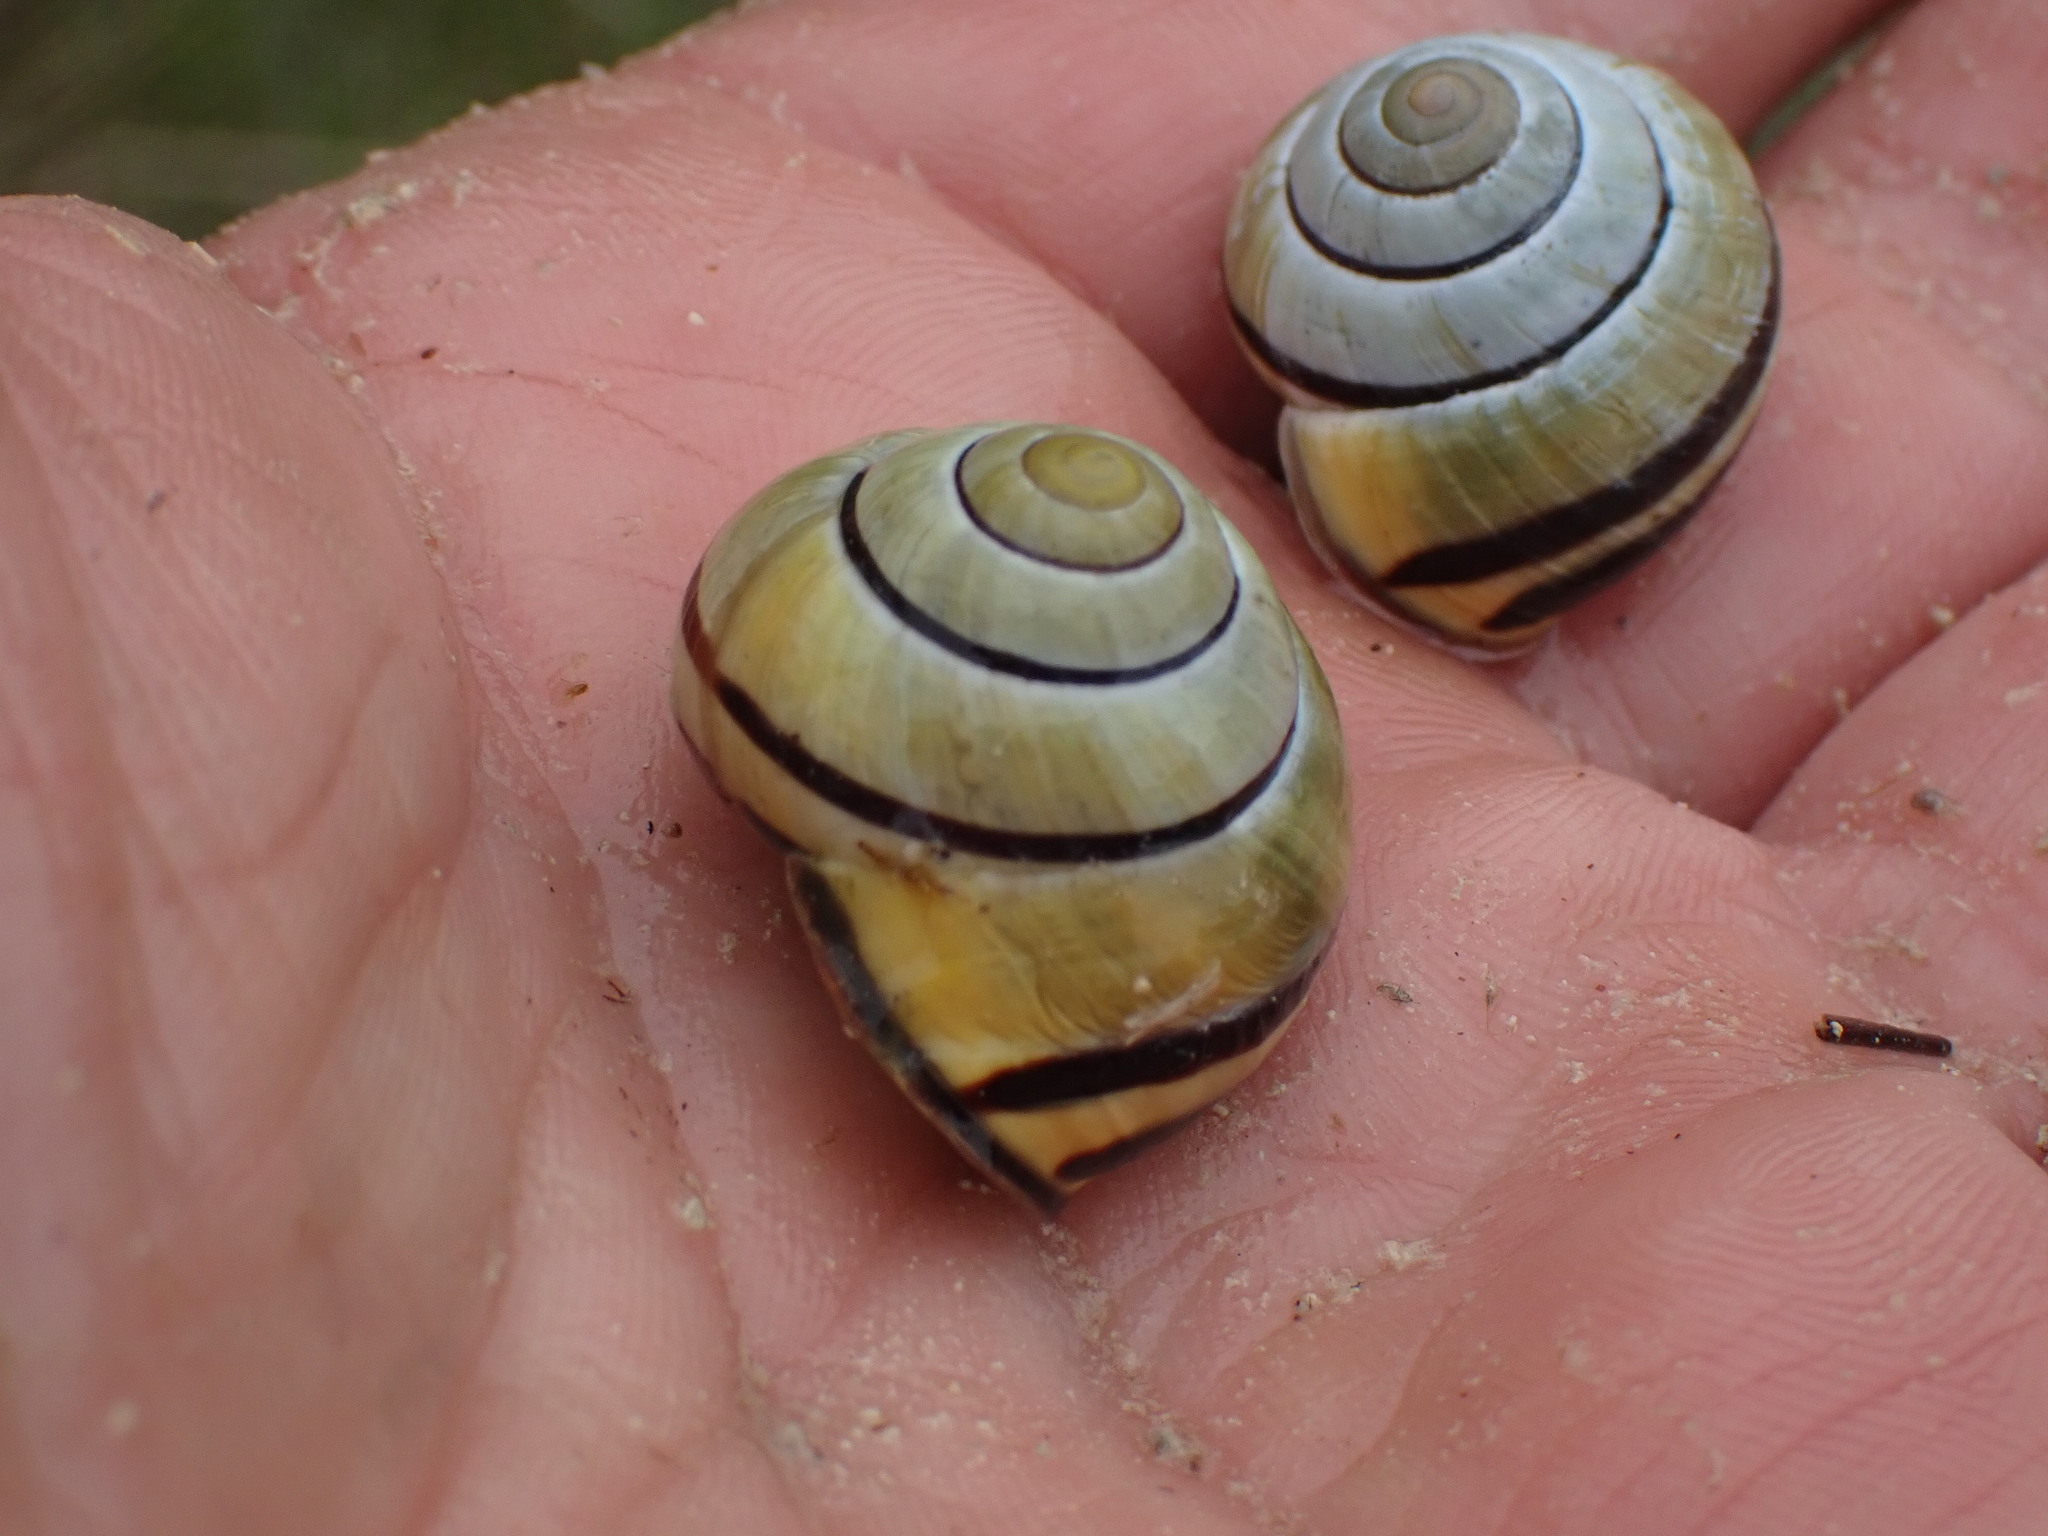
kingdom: Animalia
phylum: Mollusca
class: Gastropoda
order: Stylommatophora
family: Helicidae
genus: Cepaea
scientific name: Cepaea nemoralis
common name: Grovesnail
